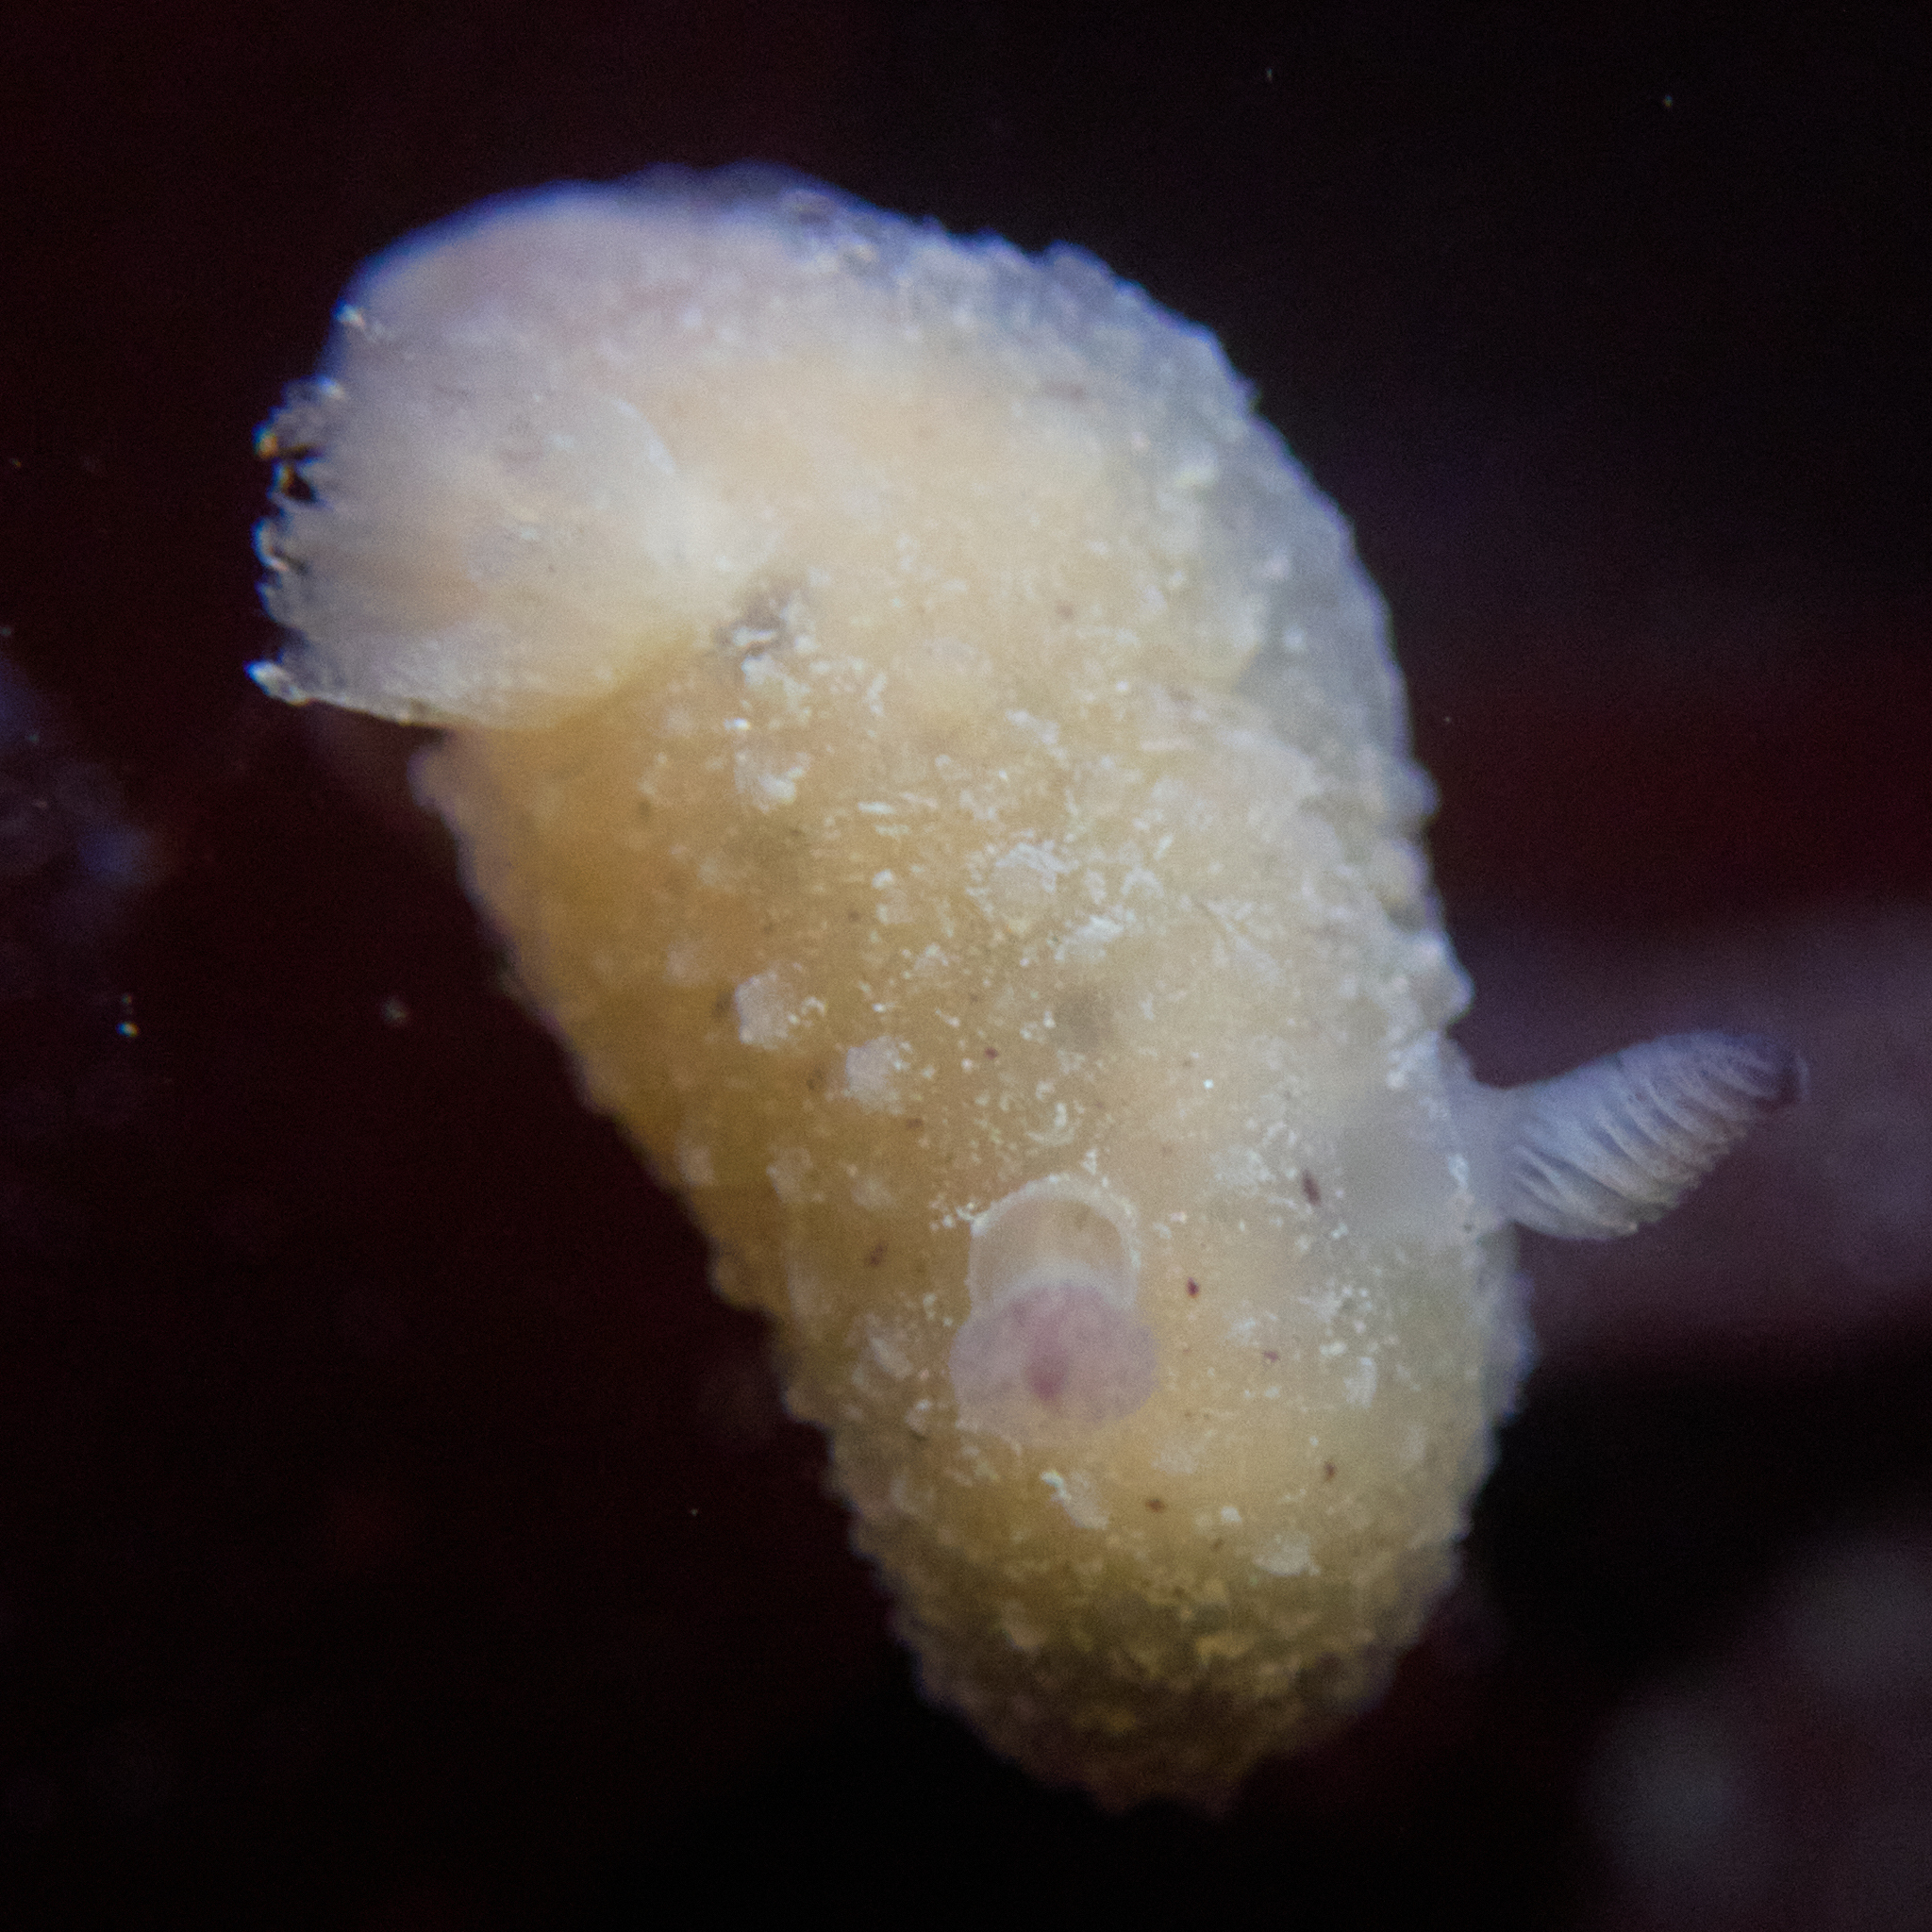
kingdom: Animalia
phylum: Mollusca
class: Gastropoda
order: Nudibranchia
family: Actinocyclidae
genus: Hallaxa
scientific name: Hallaxa chani
